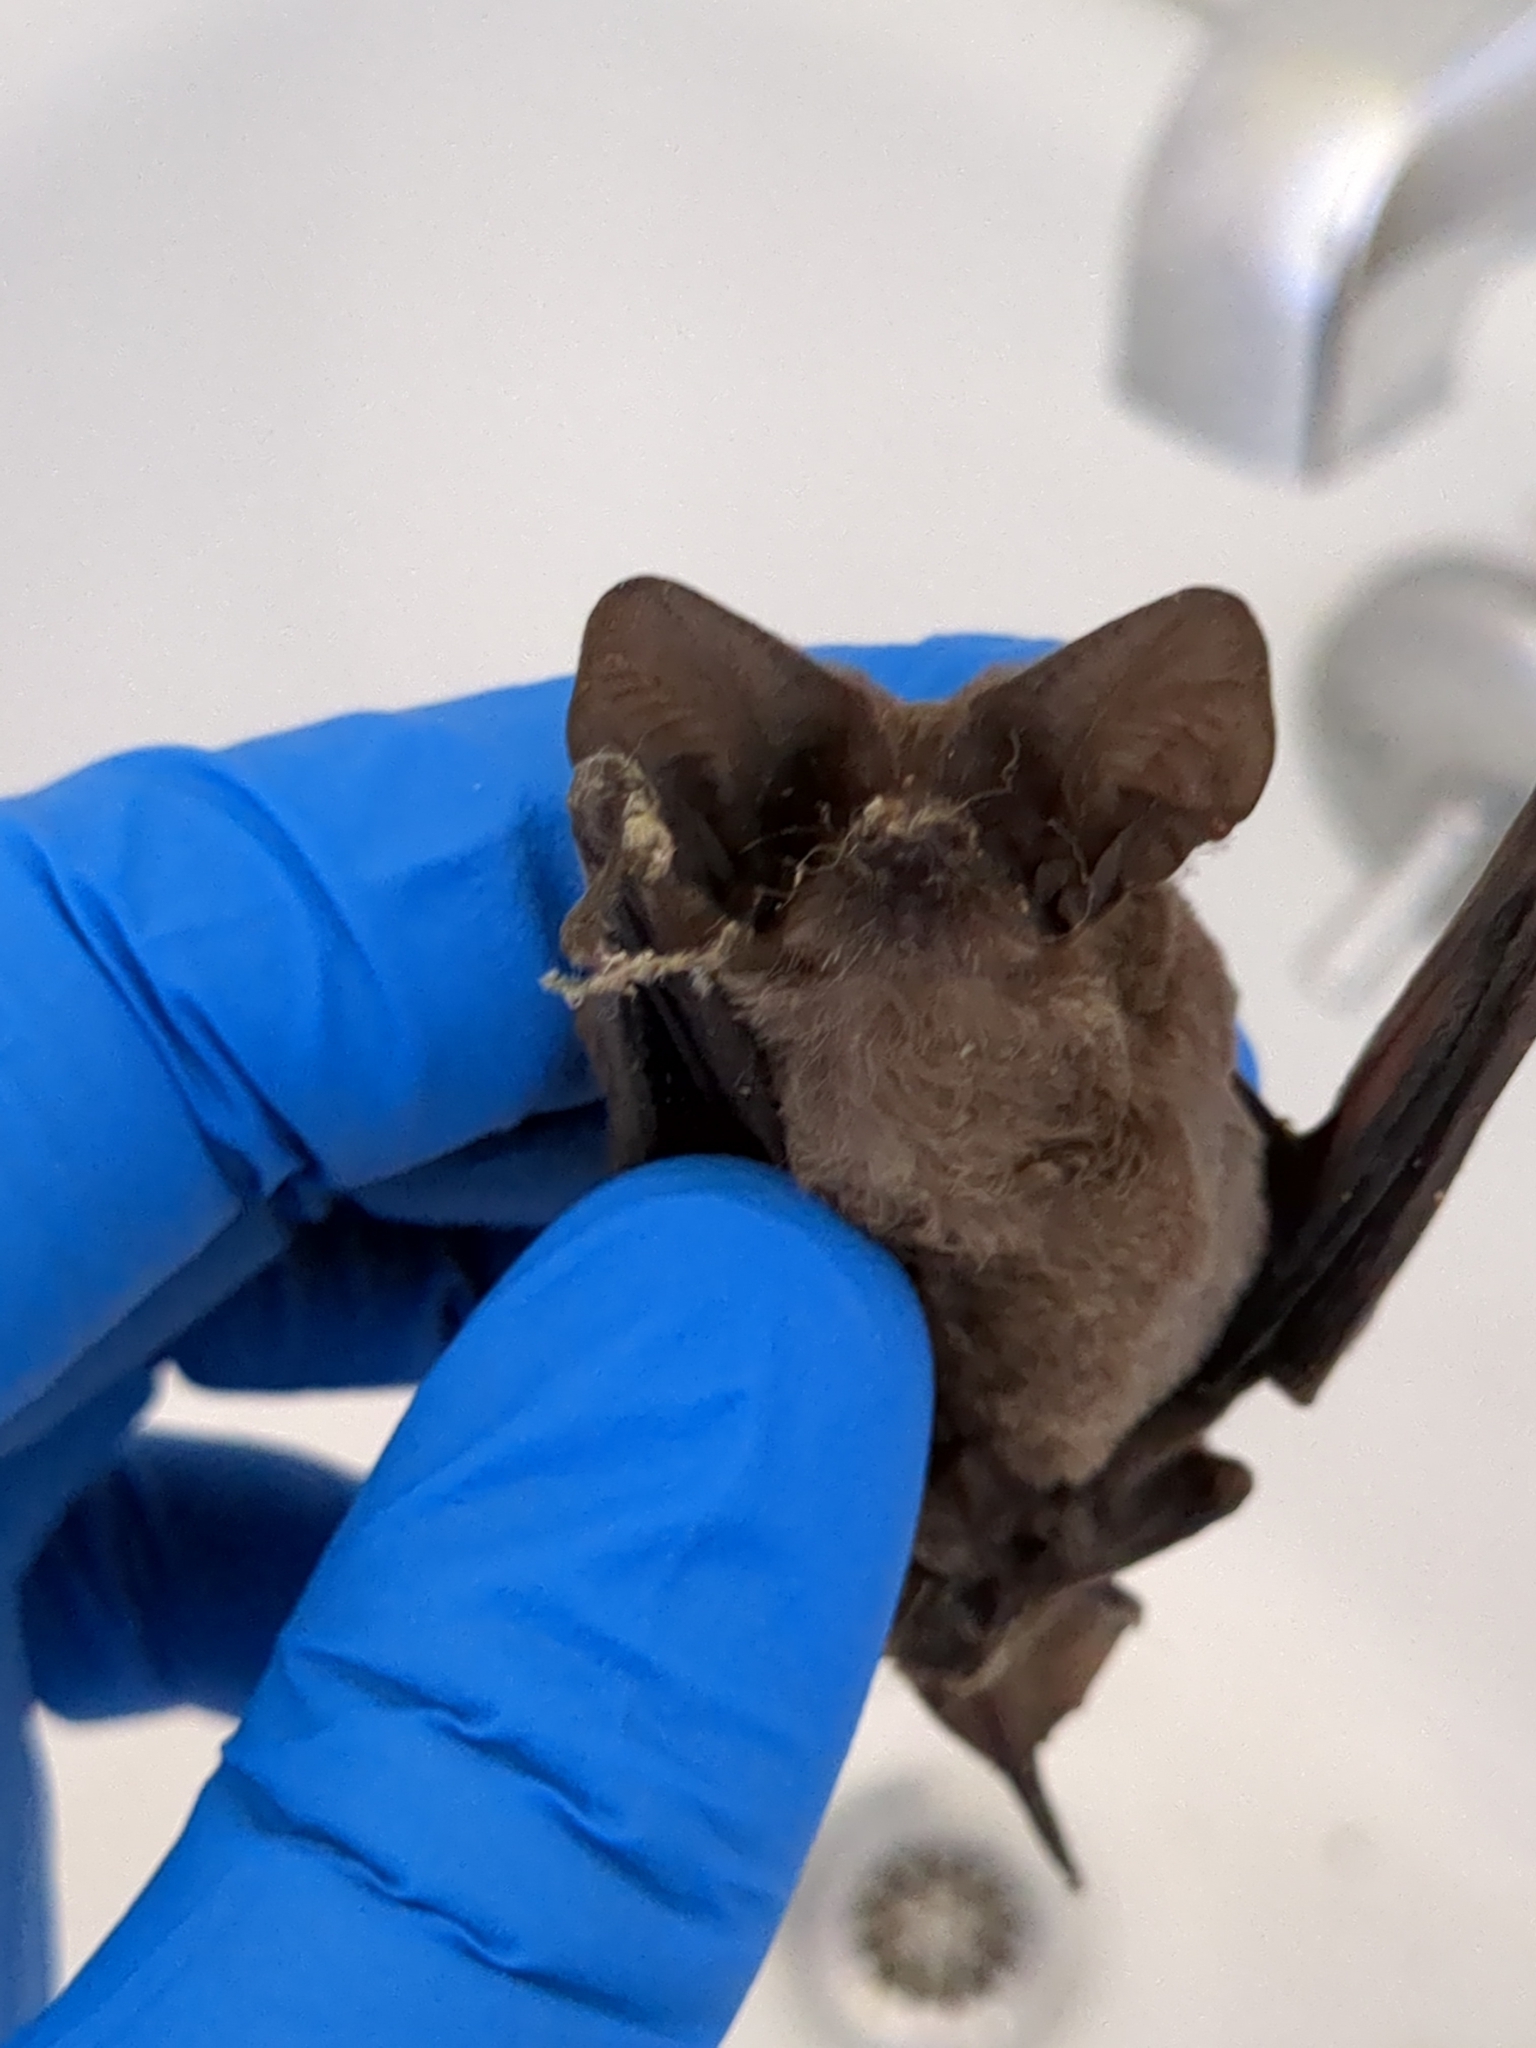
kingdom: Animalia
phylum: Chordata
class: Mammalia
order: Chiroptera
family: Molossidae
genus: Tadarida
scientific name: Tadarida brasiliensis
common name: Mexican free-tailed bat
